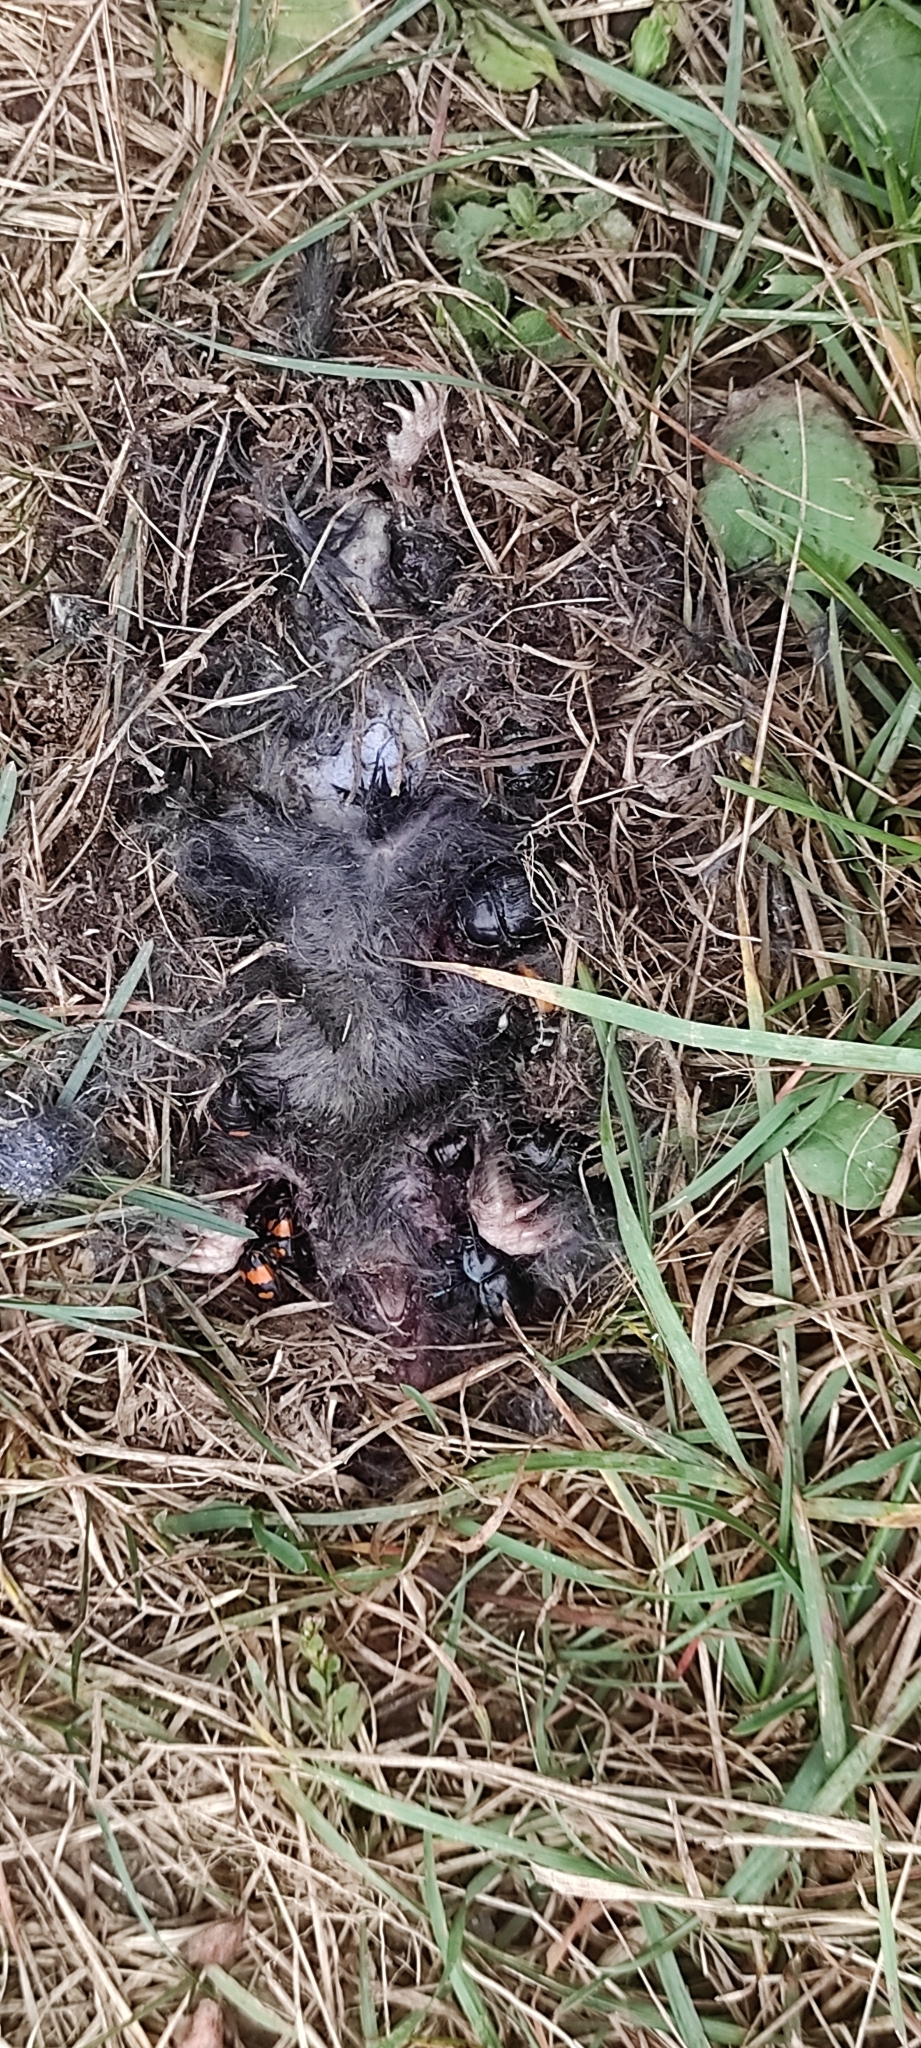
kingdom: Animalia
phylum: Chordata
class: Mammalia
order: Soricomorpha
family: Talpidae
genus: Talpa
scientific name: Talpa europaea
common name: European mole
